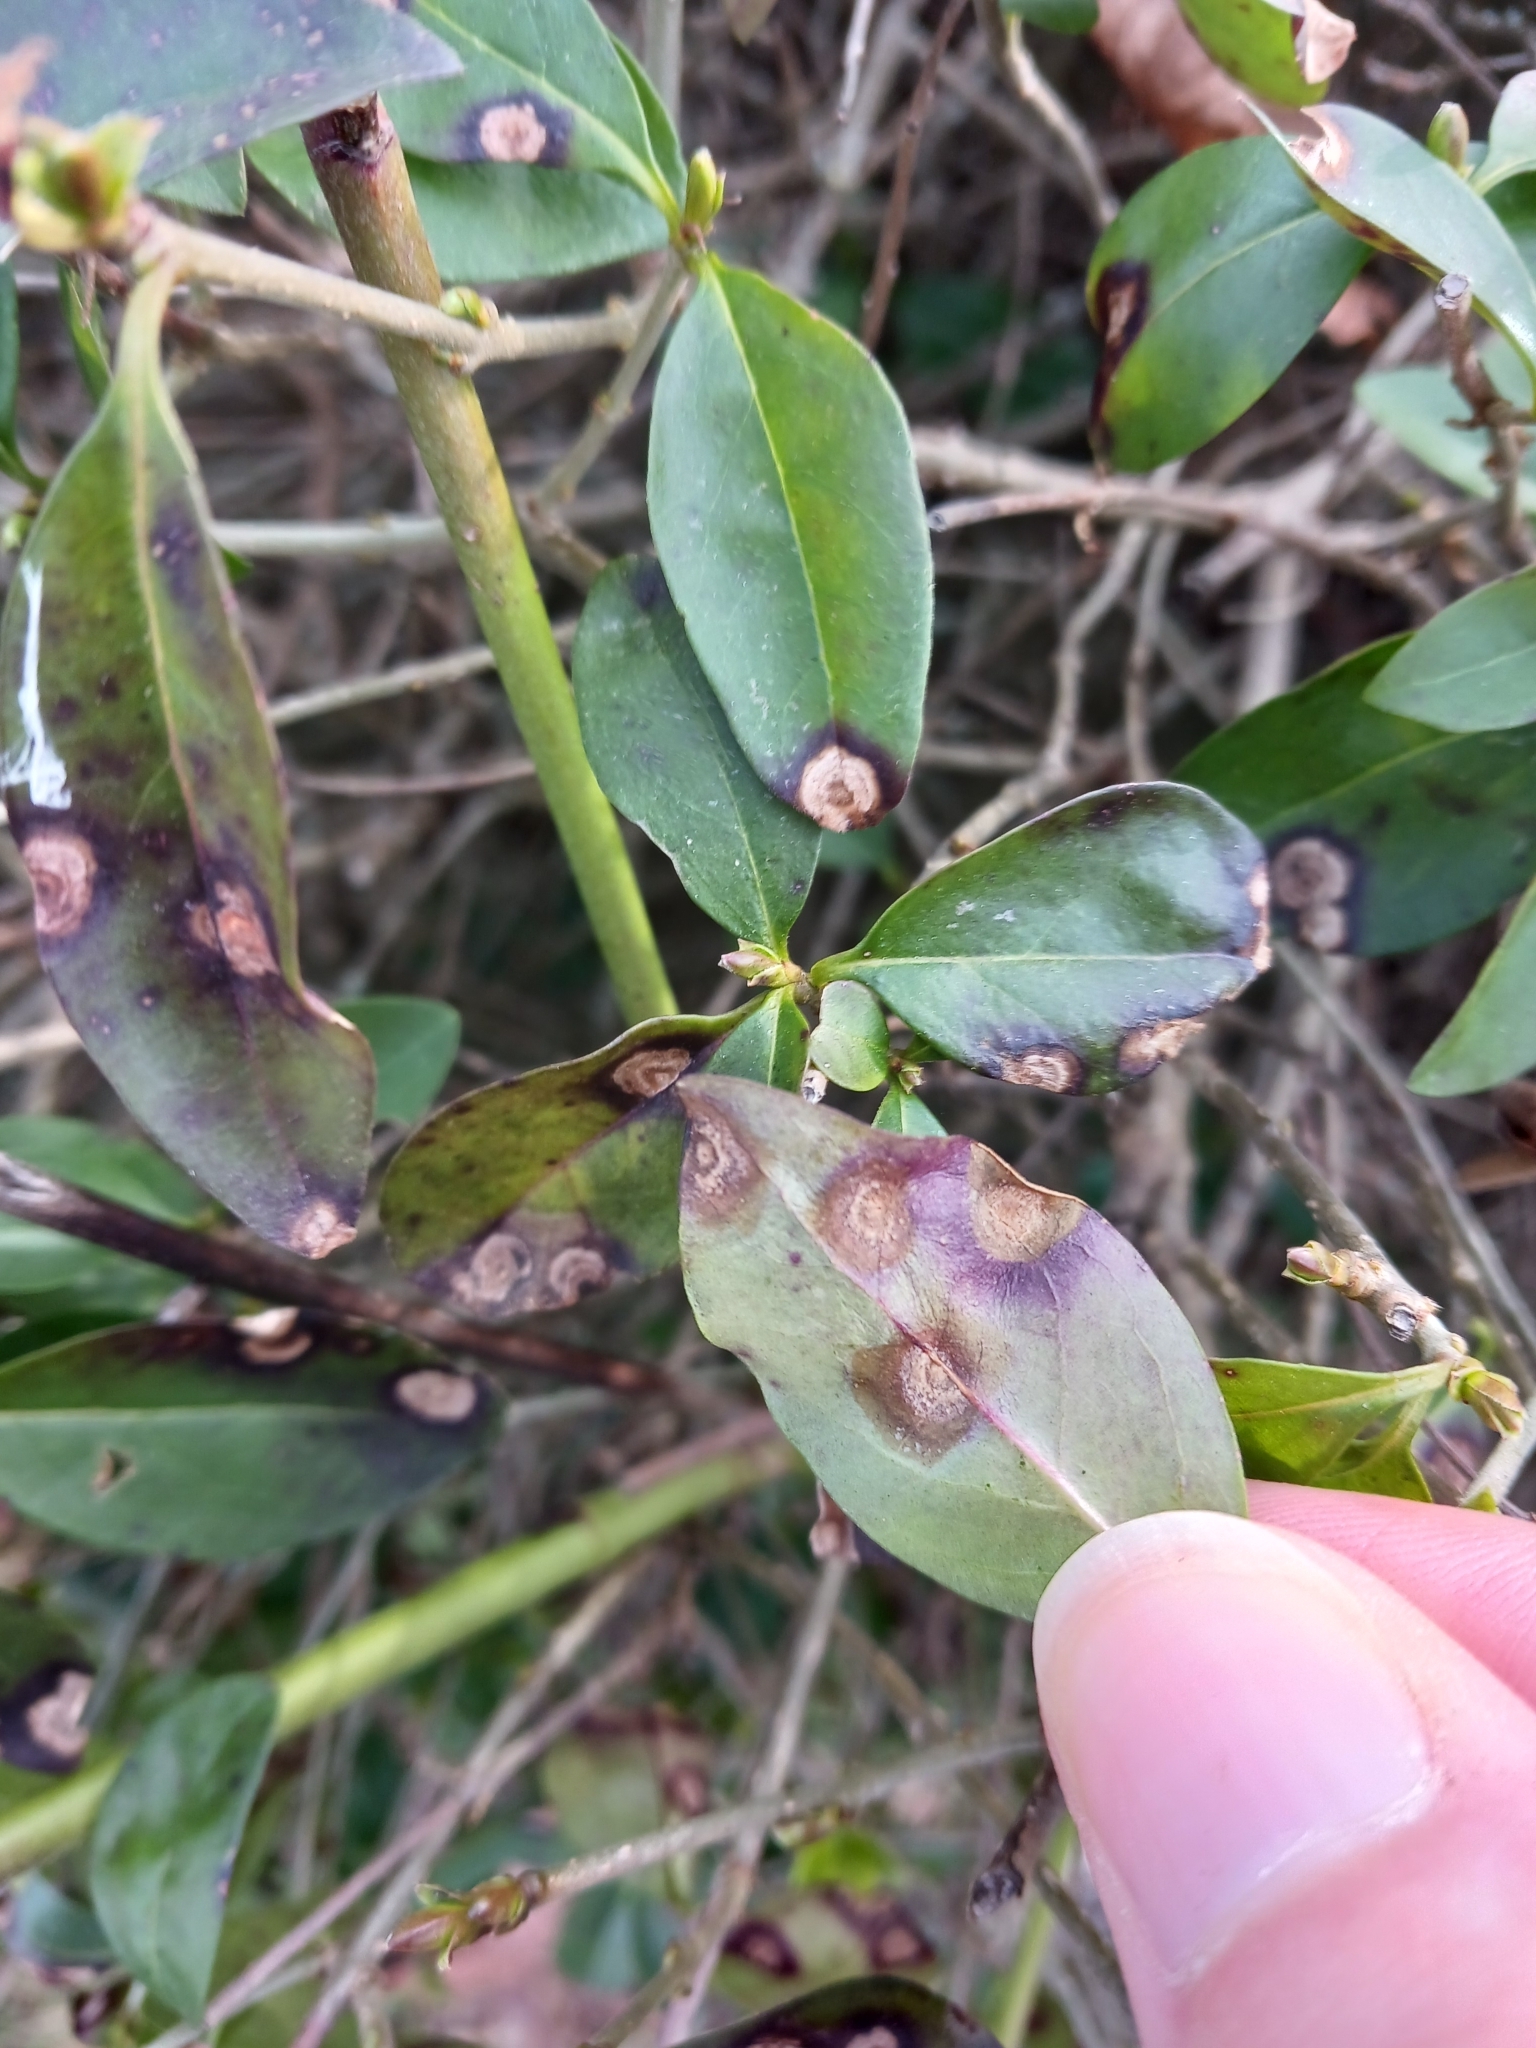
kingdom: Fungi
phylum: Ascomycota
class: Leotiomycetes
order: Helotiales
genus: Thedgonia
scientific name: Thedgonia ligustrina
